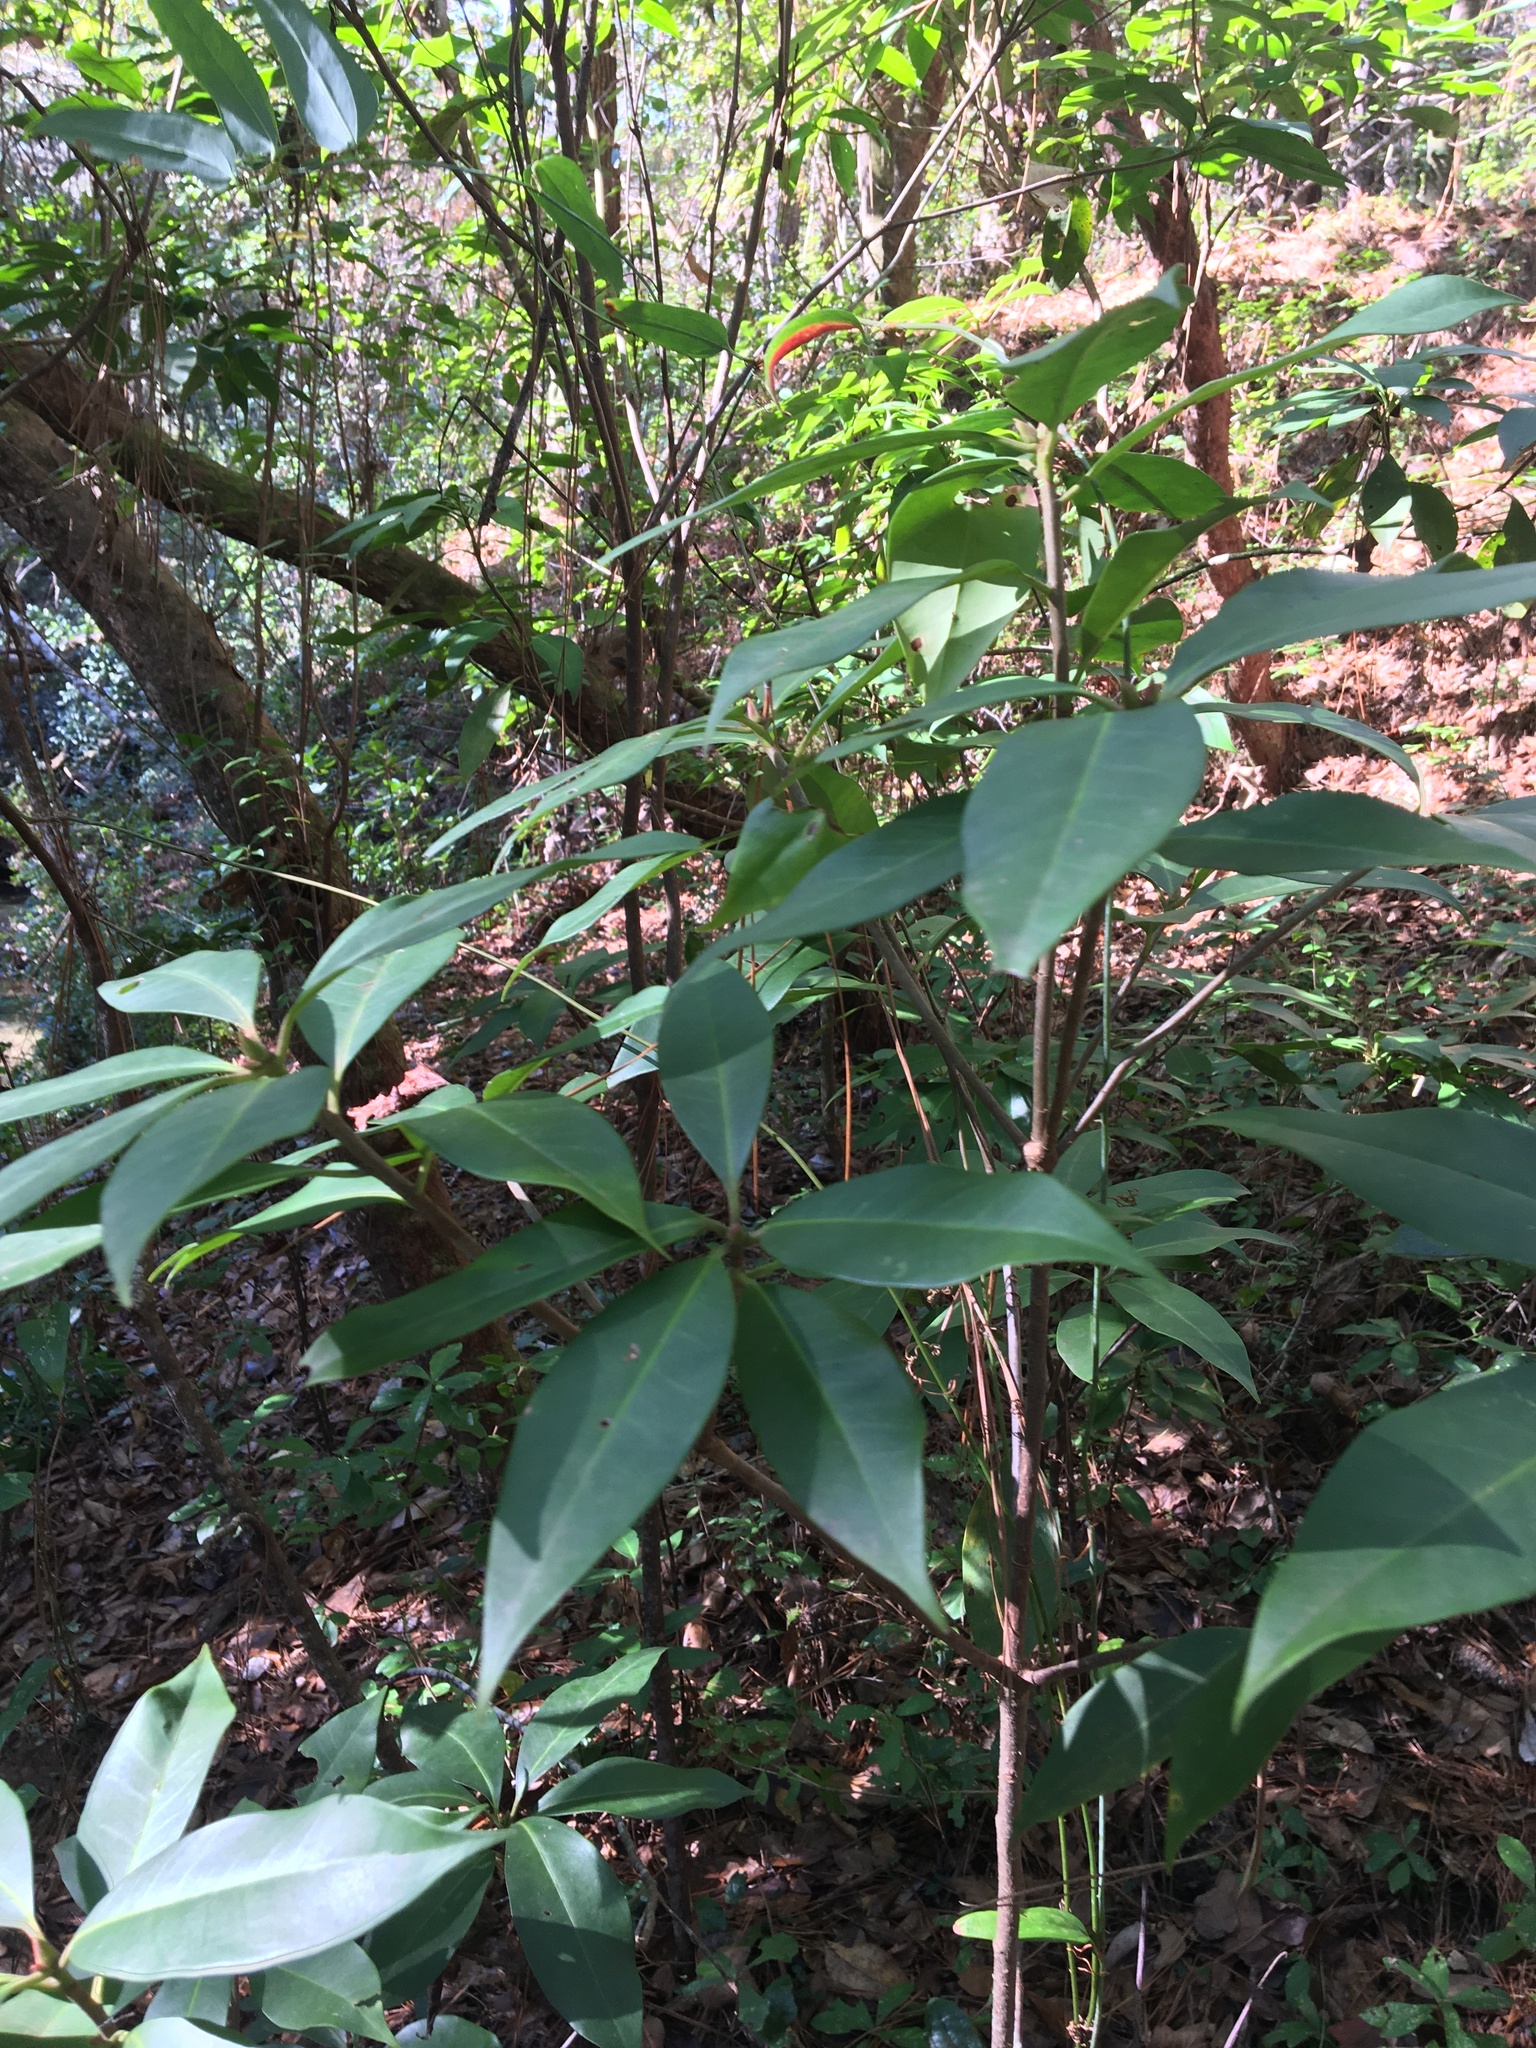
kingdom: Plantae
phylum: Tracheophyta
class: Magnoliopsida
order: Austrobaileyales
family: Schisandraceae
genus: Illicium
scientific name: Illicium floridanum
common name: Florida anisetree
